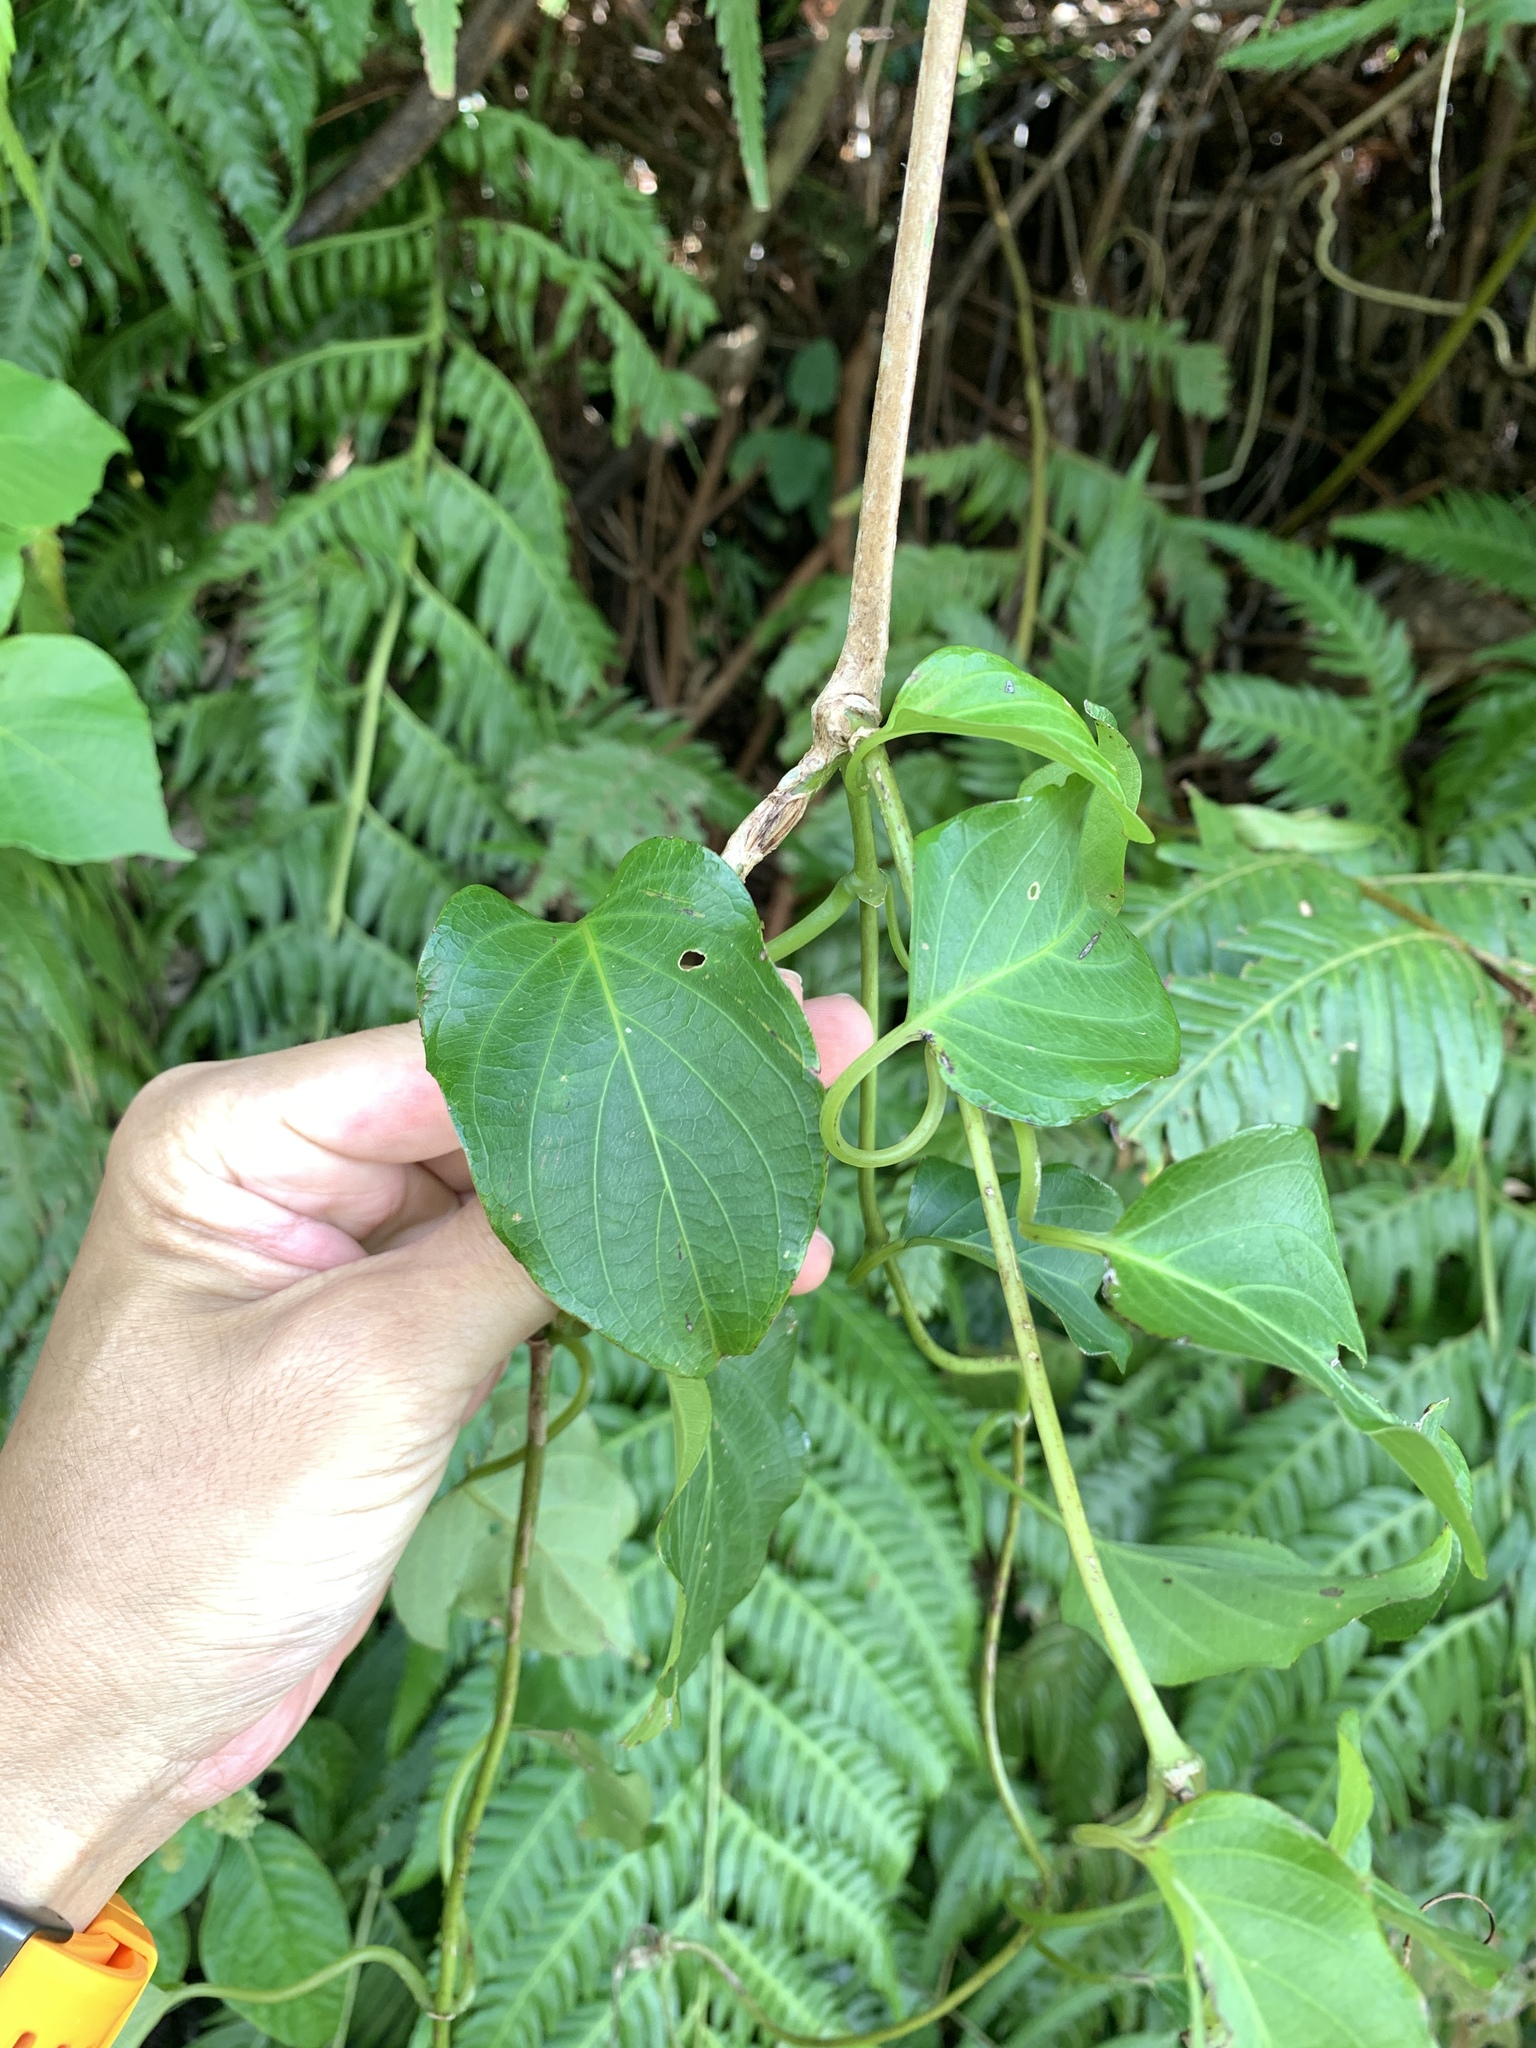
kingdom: Plantae
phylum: Tracheophyta
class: Magnoliopsida
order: Gentianales
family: Rubiaceae
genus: Paederia
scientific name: Paederia foetida
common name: Stinkvine
